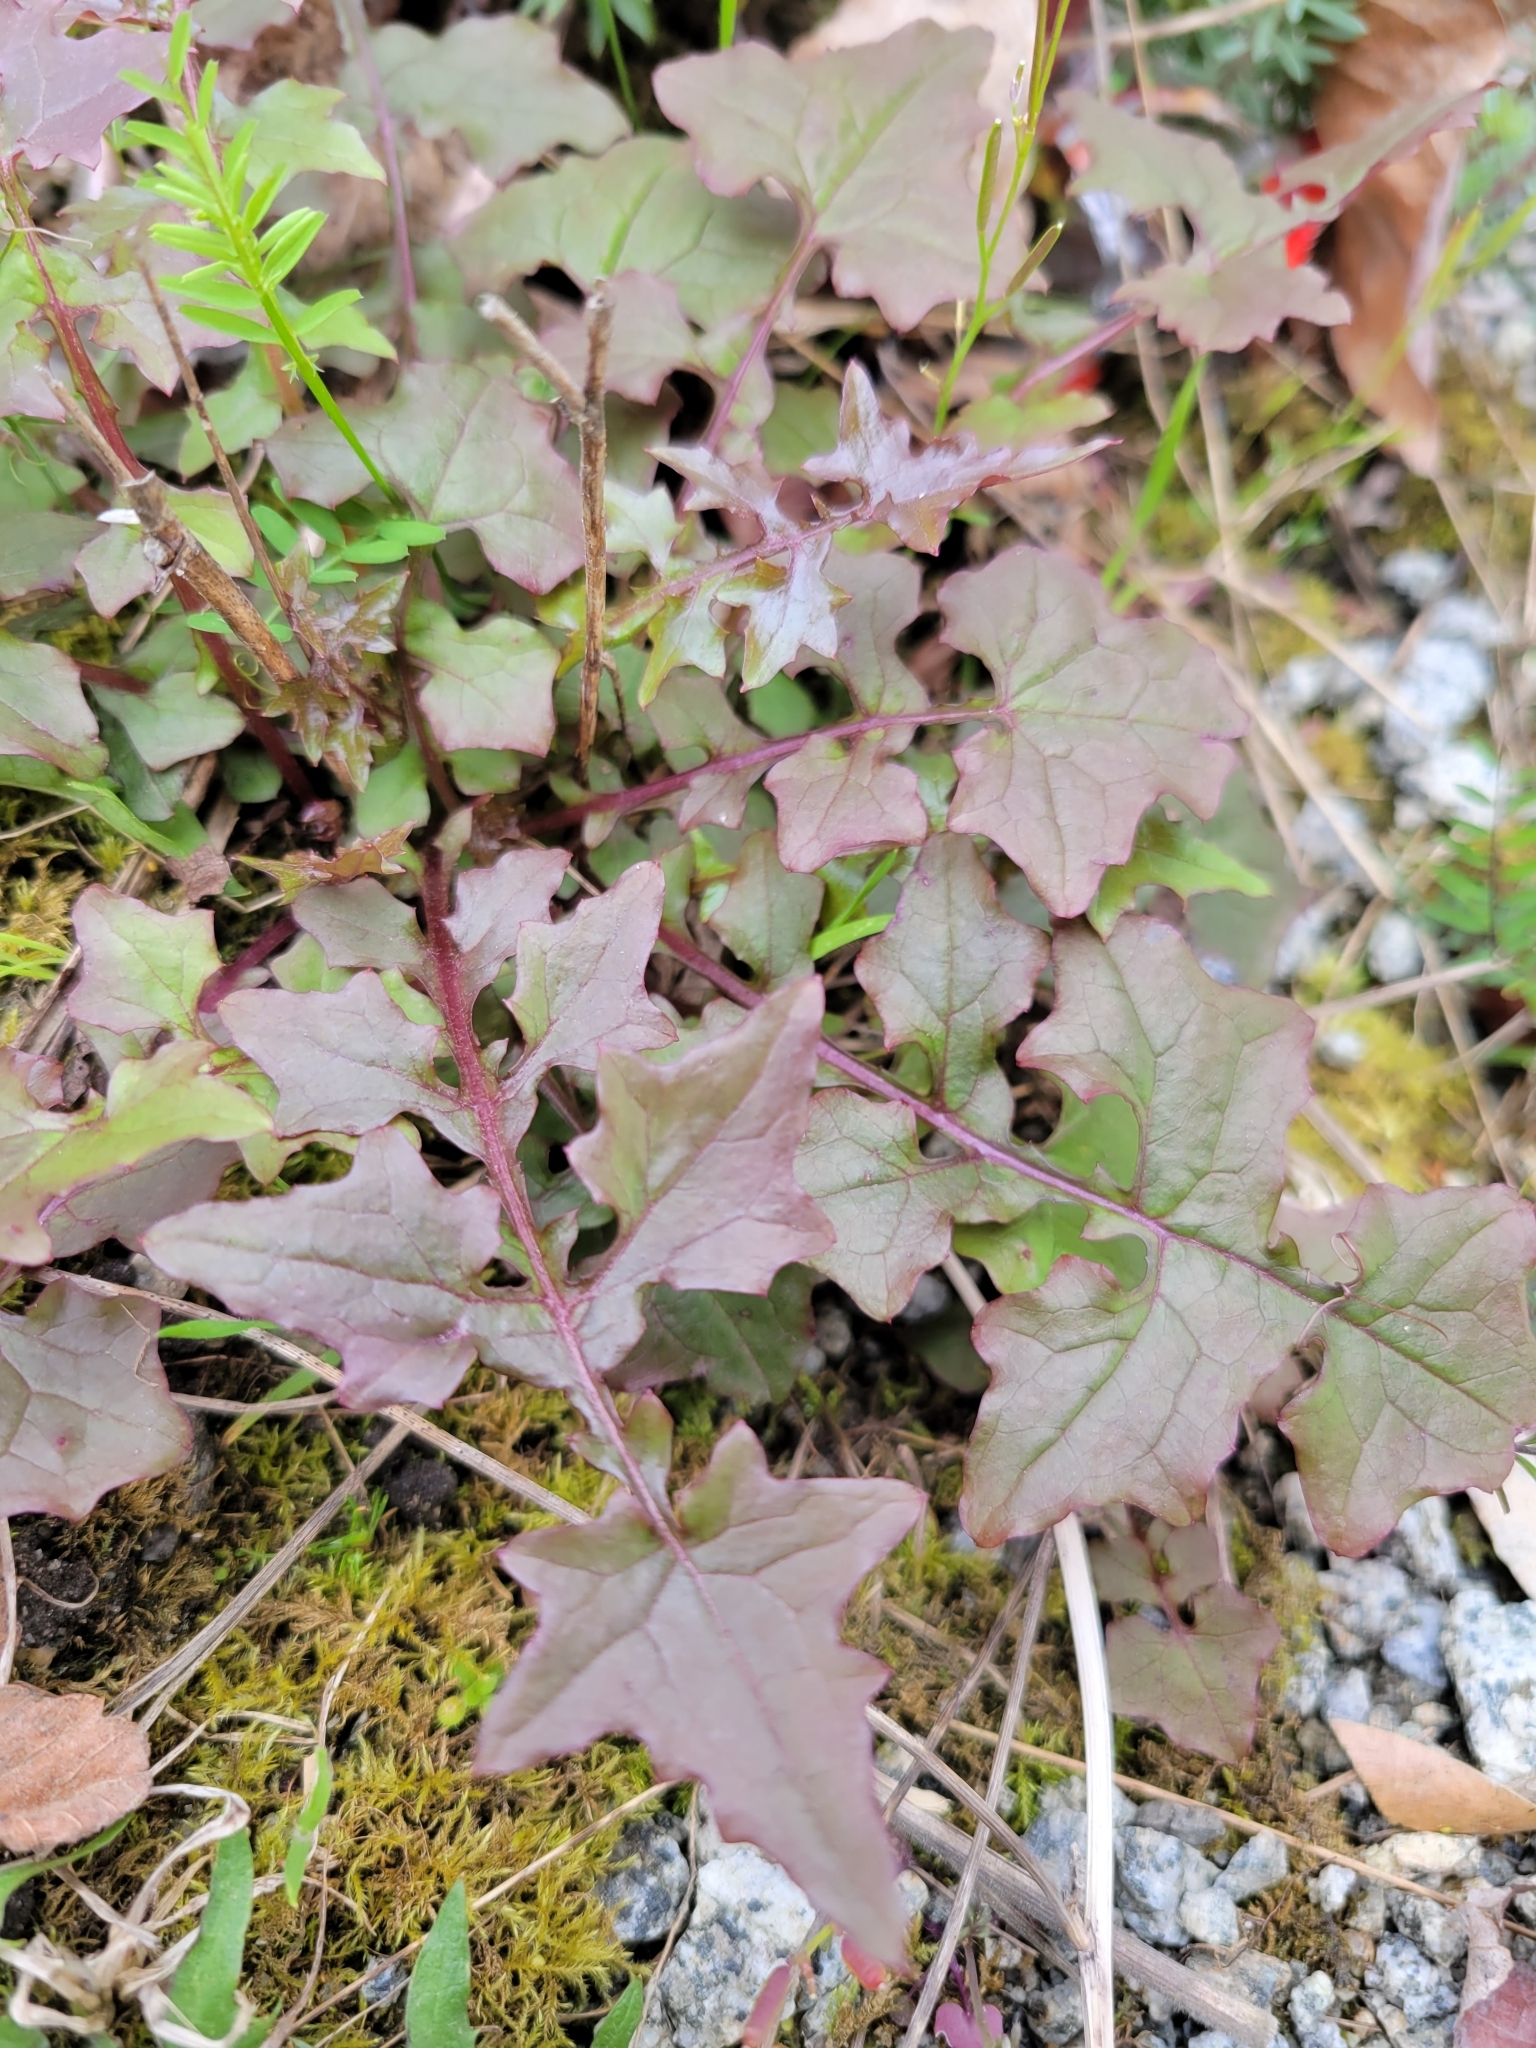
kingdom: Plantae
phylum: Tracheophyta
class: Magnoliopsida
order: Asterales
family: Asteraceae
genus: Mycelis
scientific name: Mycelis muralis
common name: Wall lettuce
